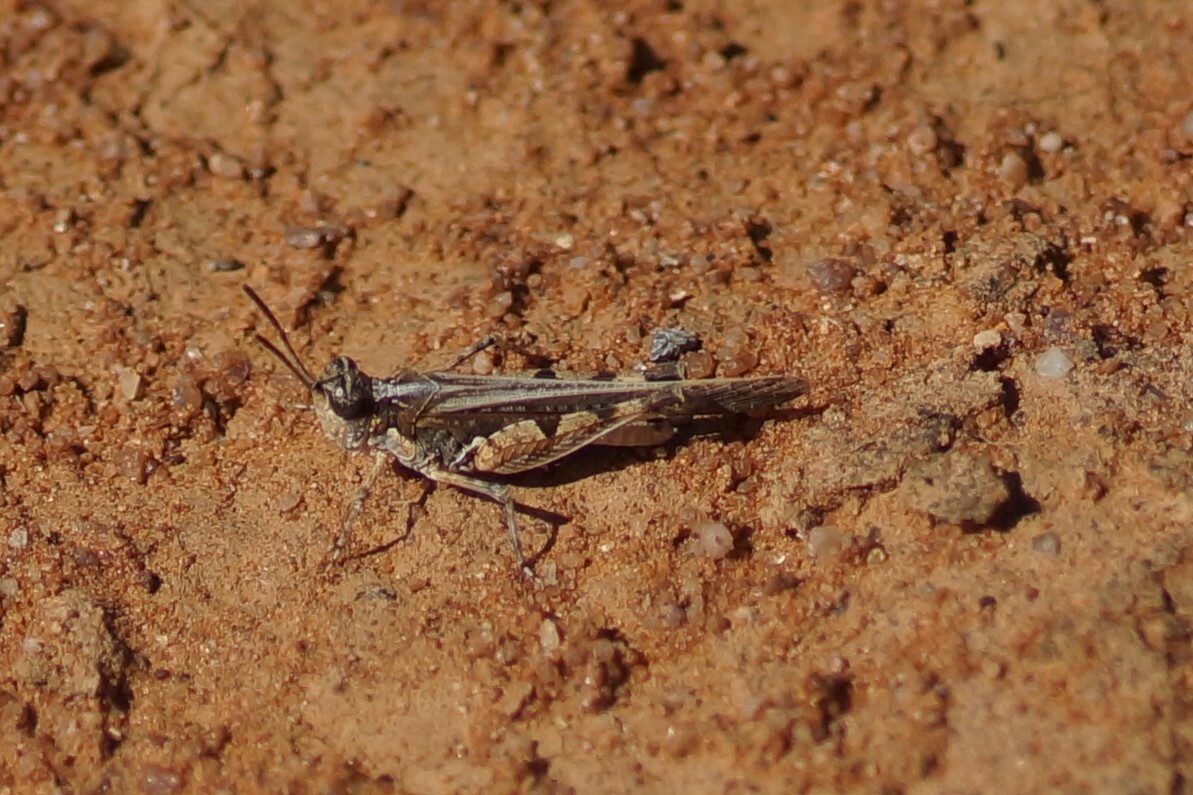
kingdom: Animalia
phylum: Arthropoda
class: Insecta
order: Orthoptera
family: Acrididae
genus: Pycnostictus
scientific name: Pycnostictus seriatus
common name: Common bandwing
